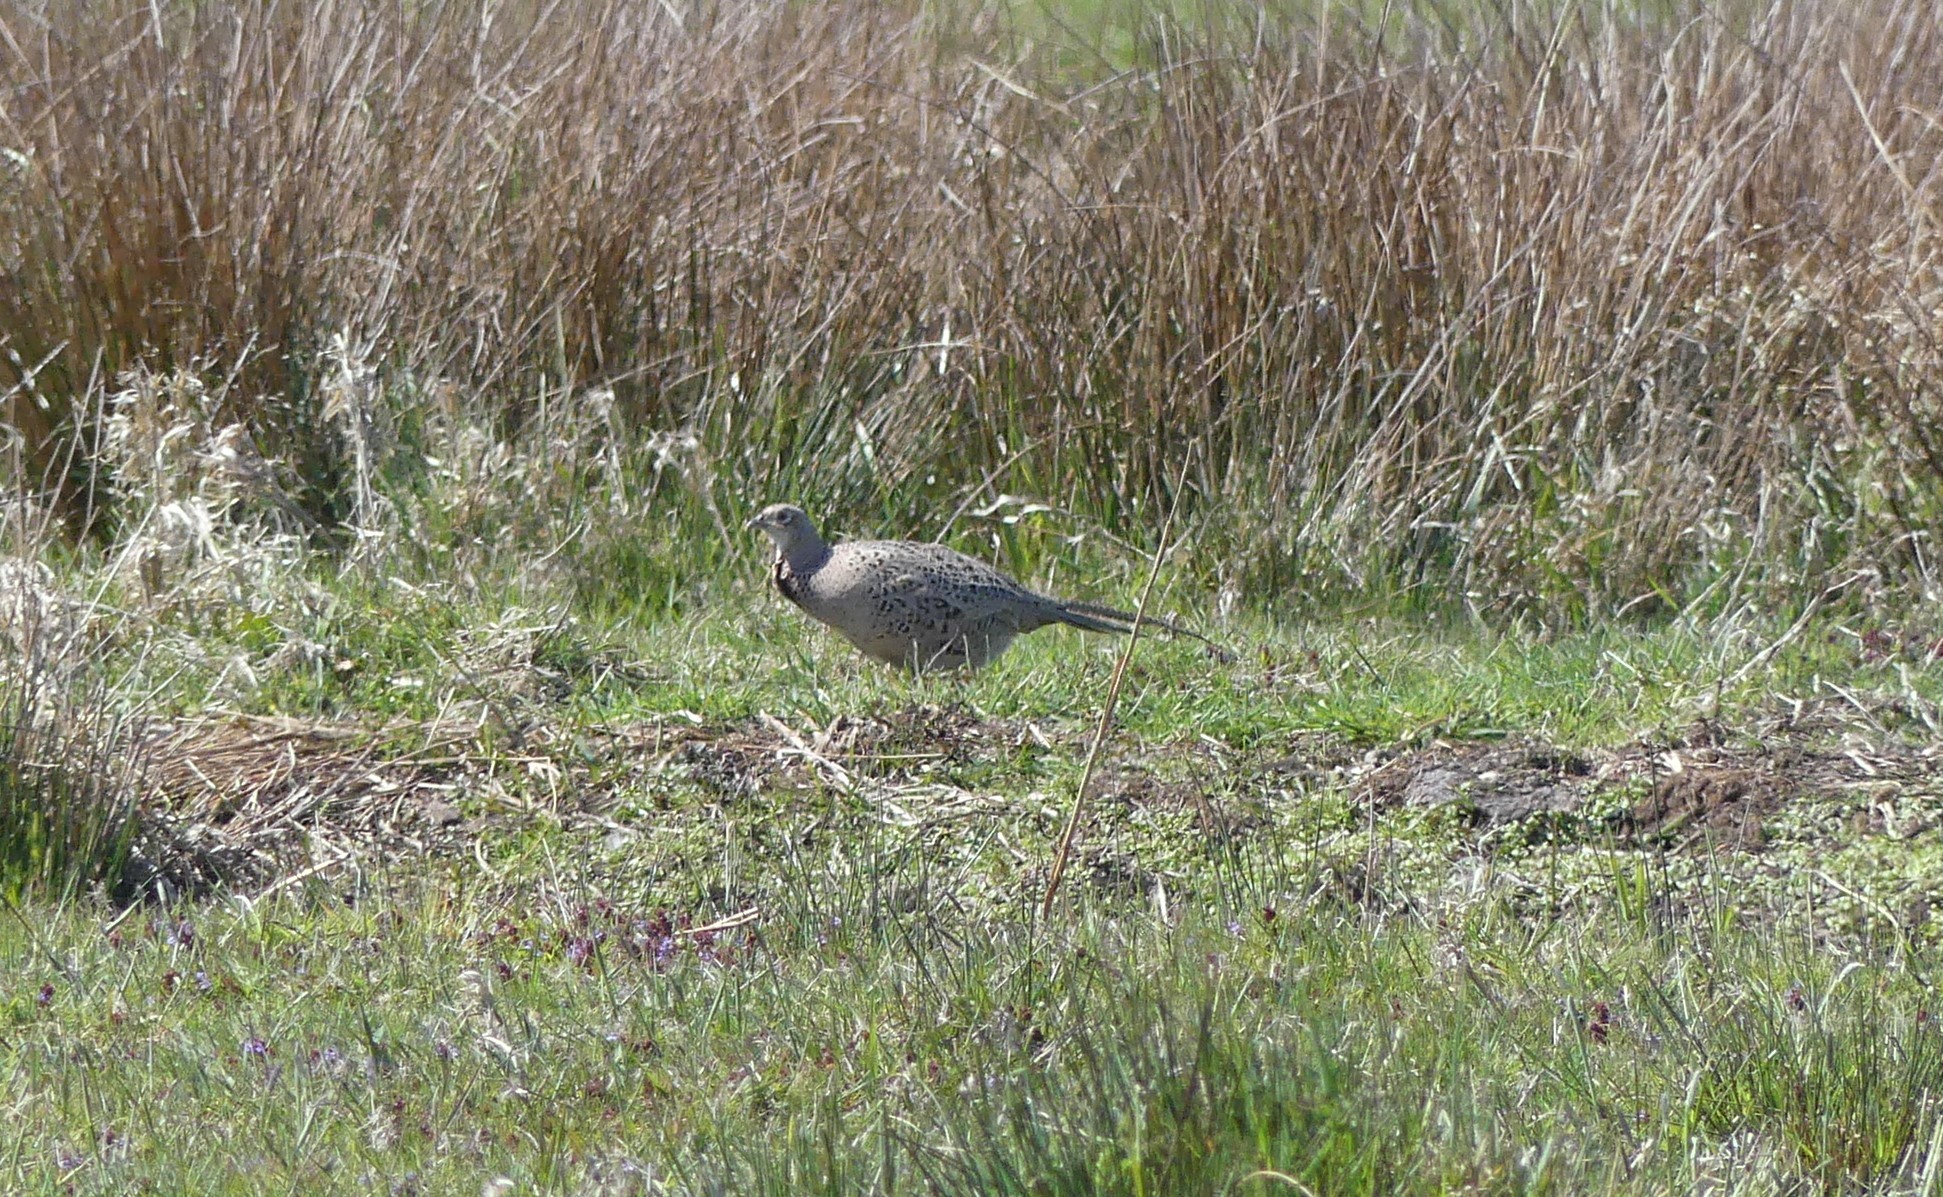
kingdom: Animalia
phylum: Chordata
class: Aves
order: Galliformes
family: Phasianidae
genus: Phasianus
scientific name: Phasianus colchicus
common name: Common pheasant
